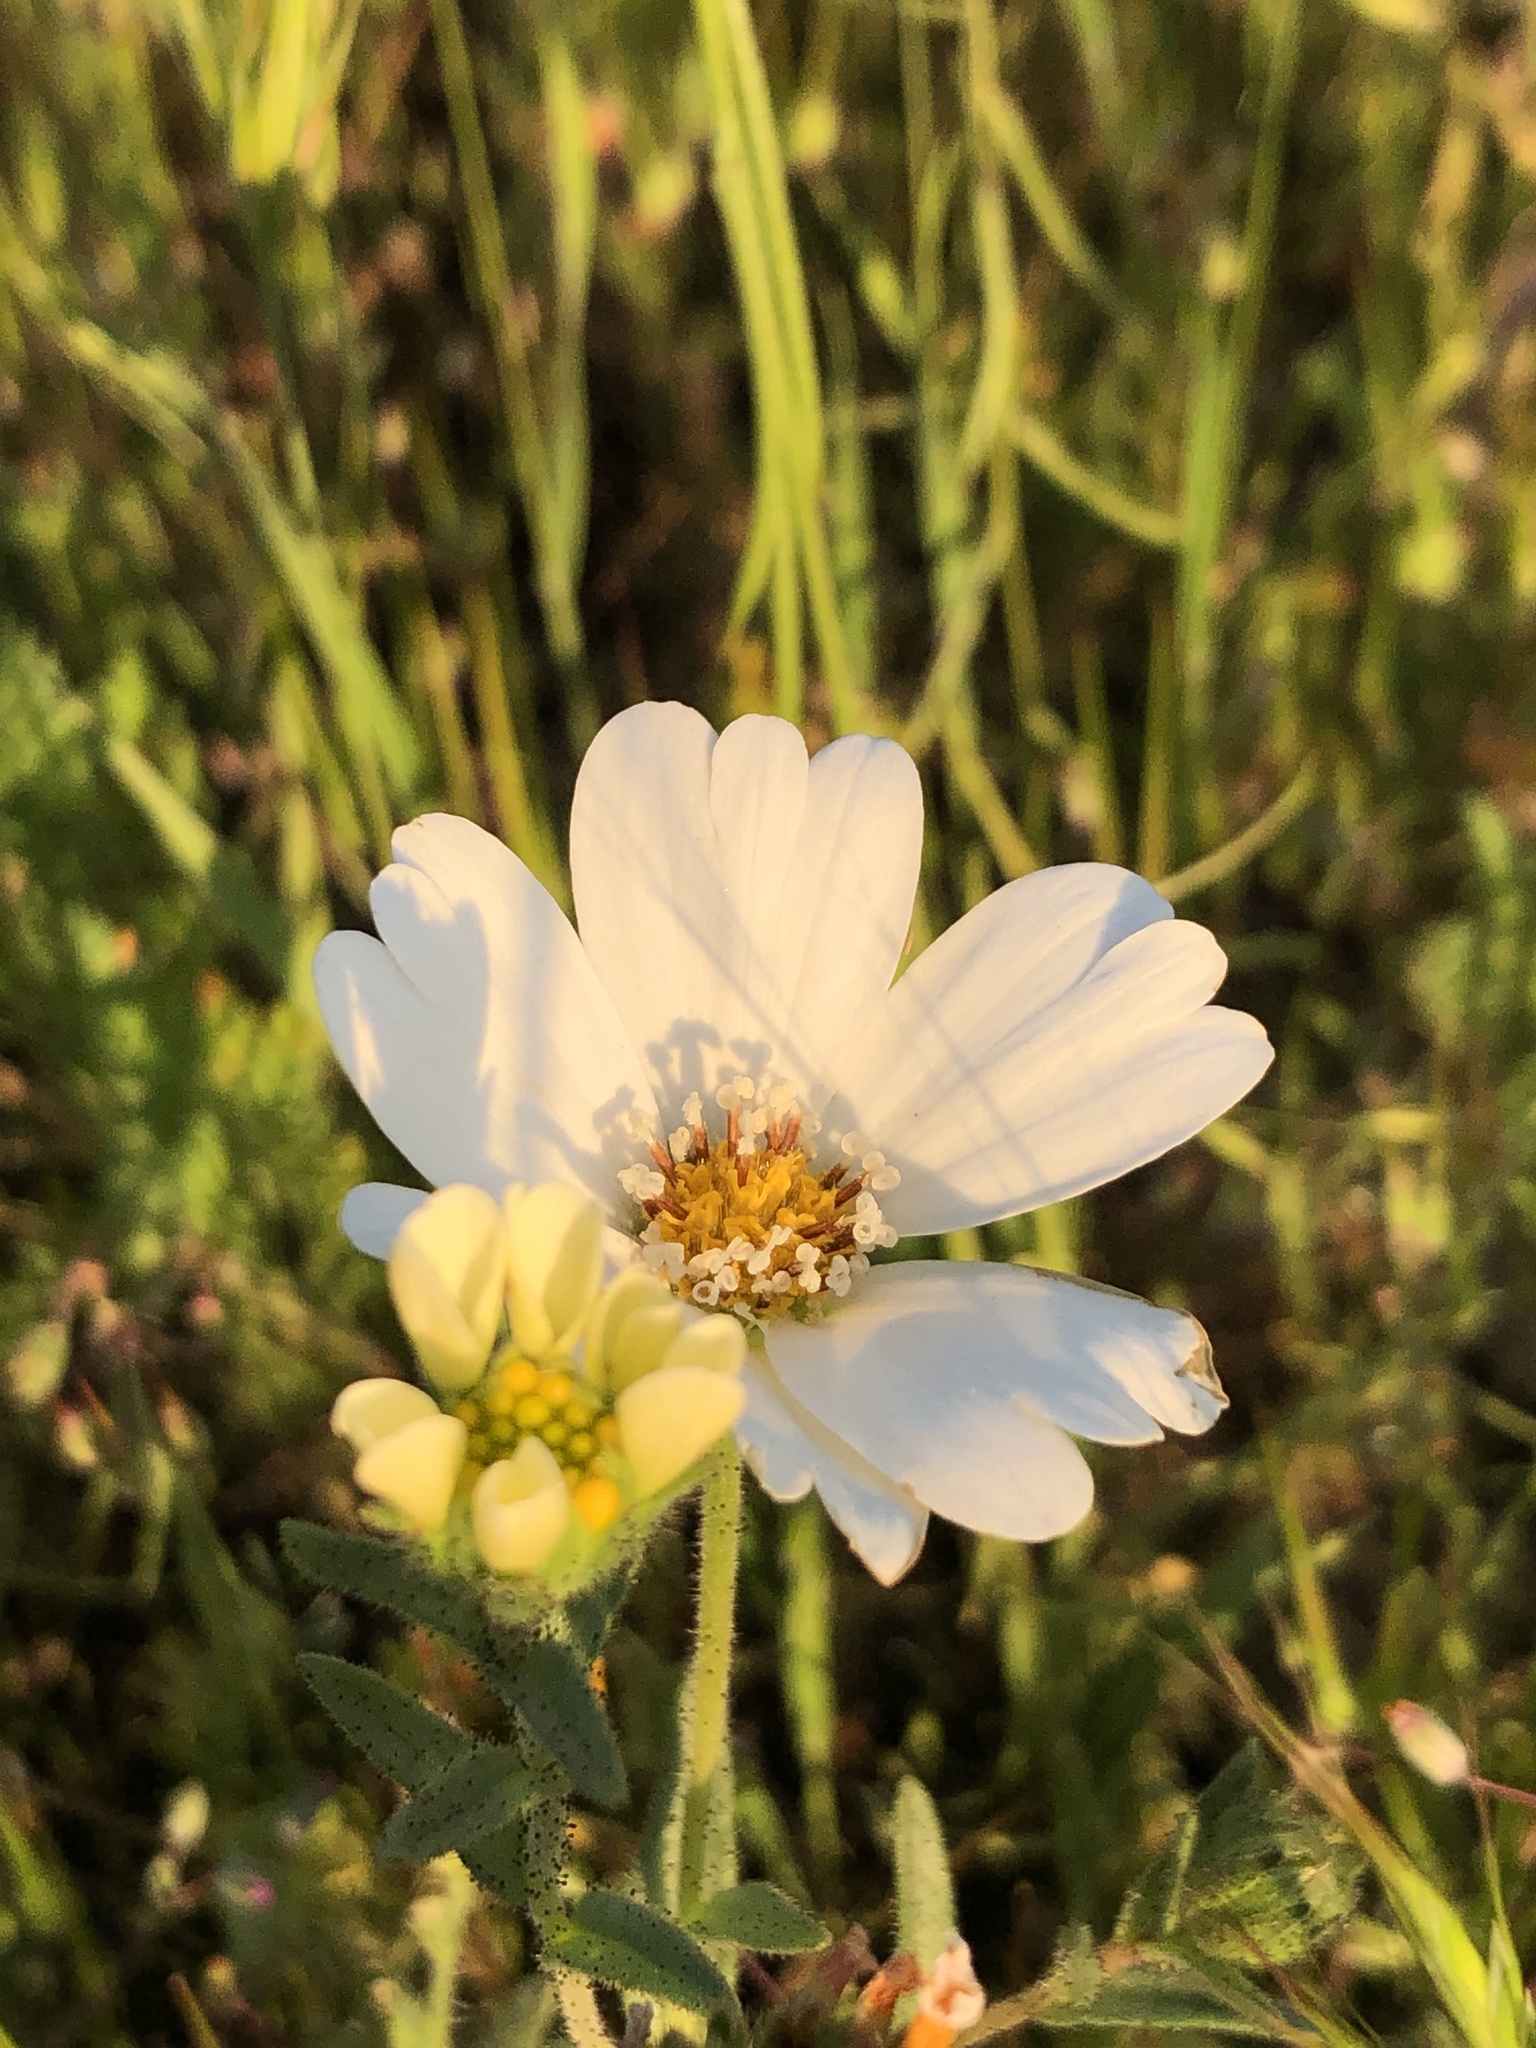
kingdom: Plantae
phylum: Tracheophyta
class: Magnoliopsida
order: Asterales
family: Asteraceae
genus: Layia
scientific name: Layia glandulosa
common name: White layia
